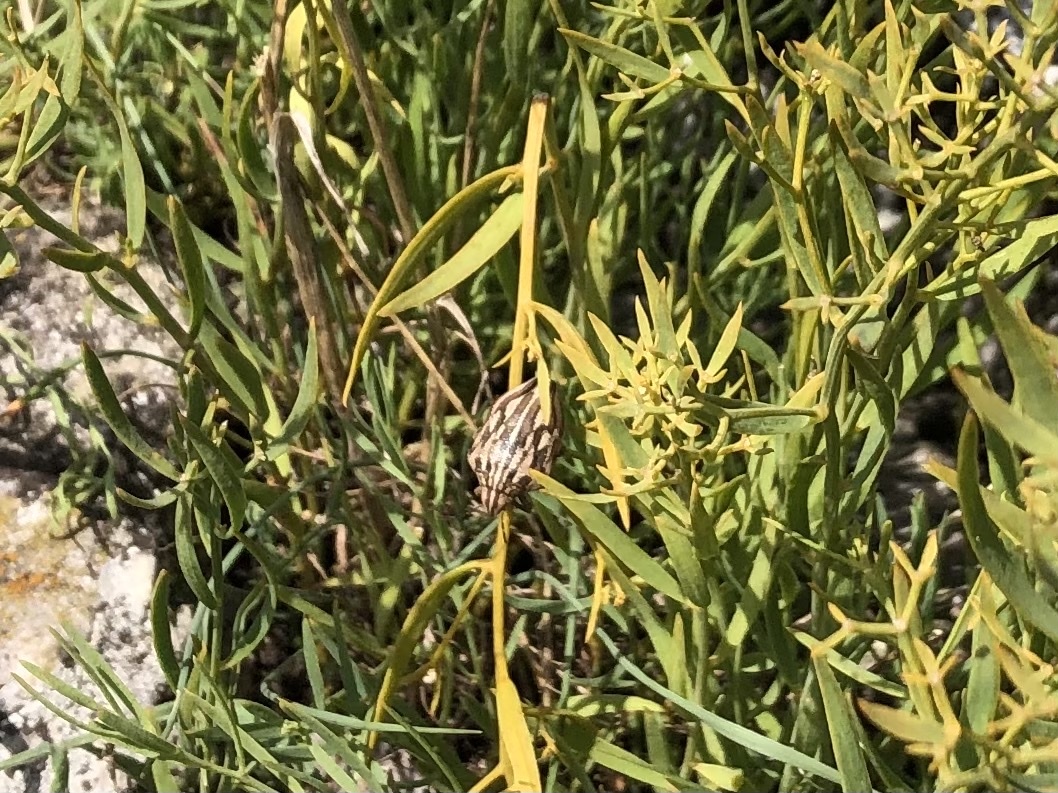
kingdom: Animalia
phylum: Arthropoda
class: Insecta
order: Hemiptera
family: Scutelleridae
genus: Odontotarsus
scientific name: Odontotarsus purpureolineatus
